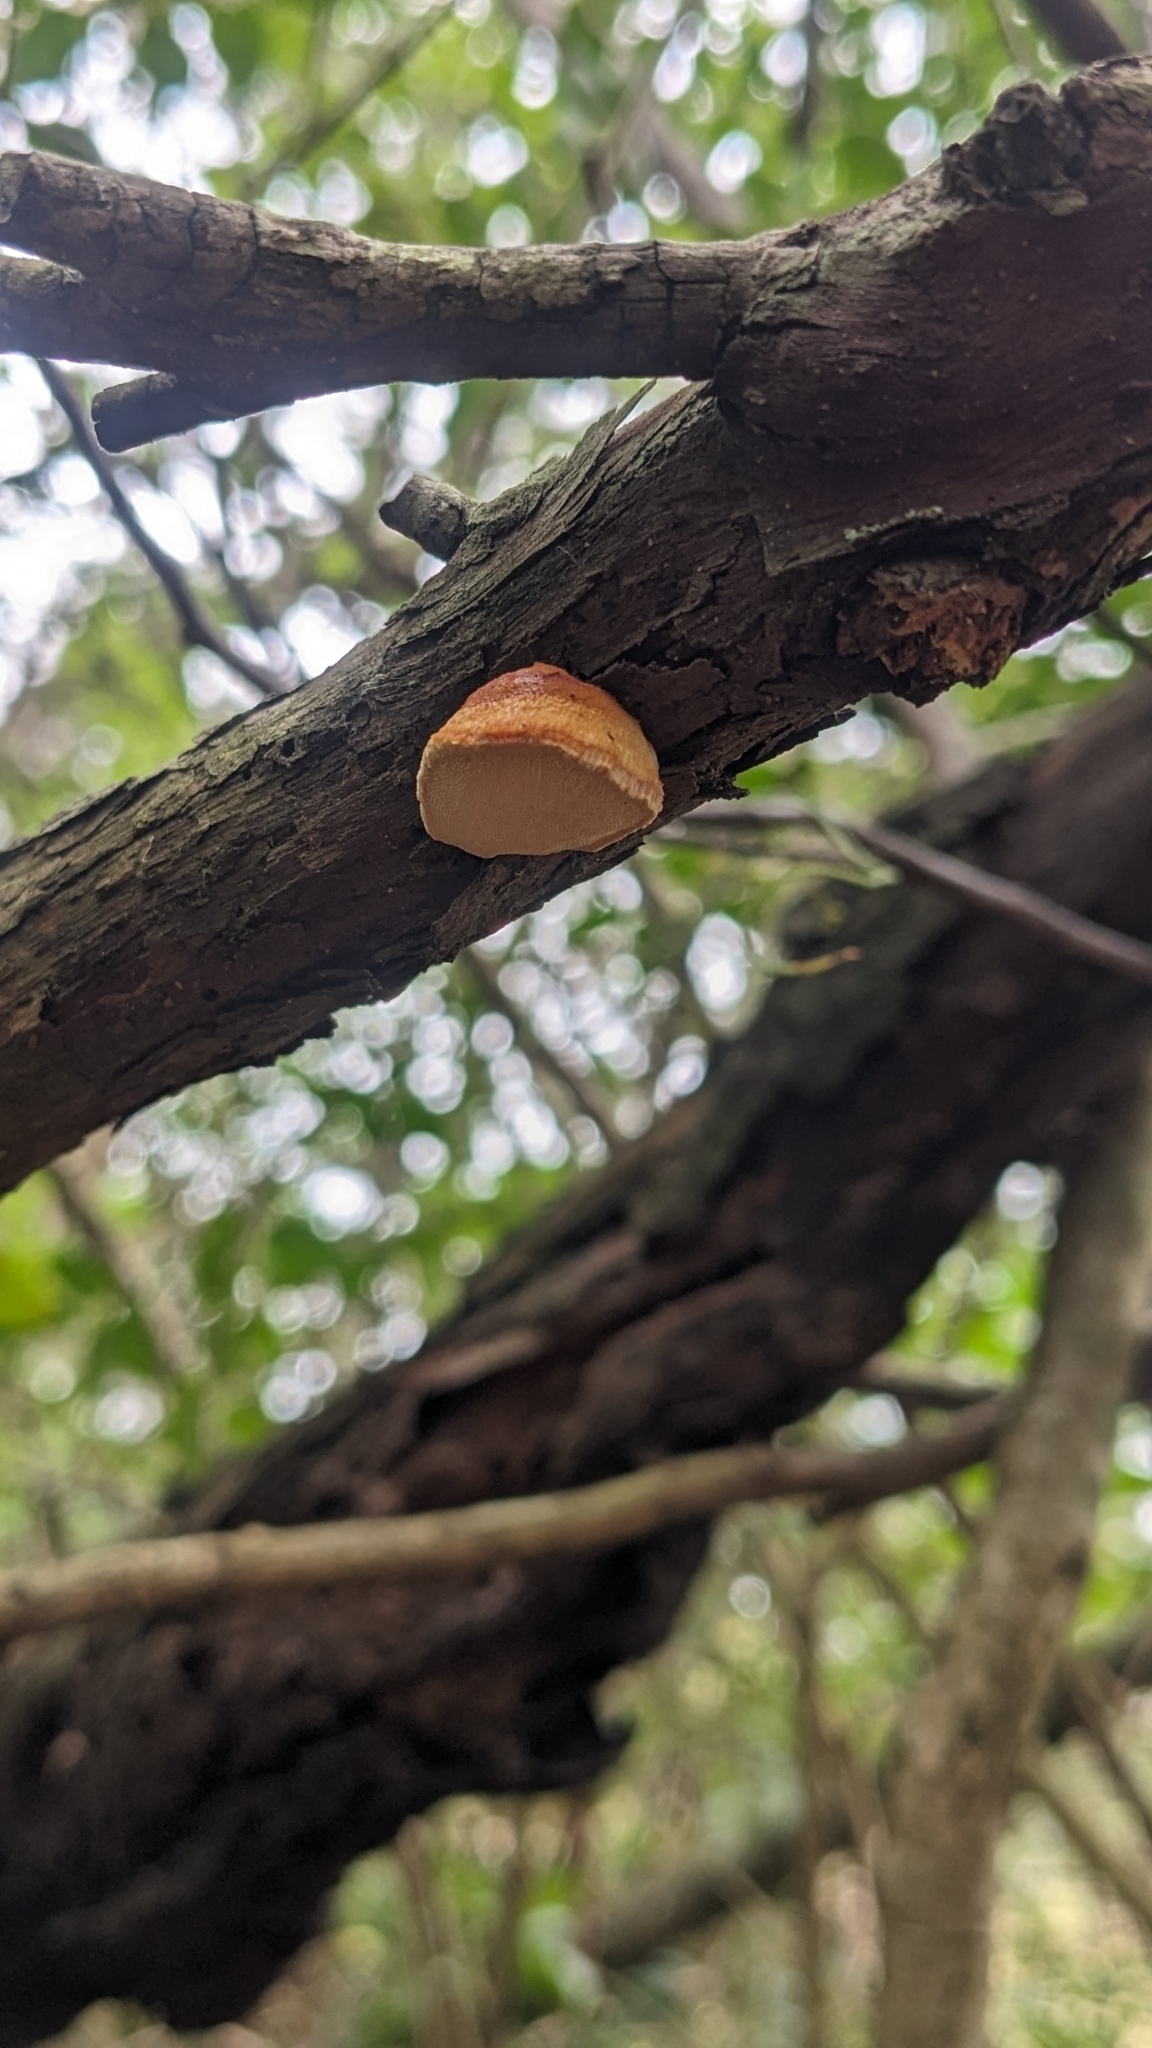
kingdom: Fungi
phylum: Basidiomycota
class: Agaricomycetes
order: Polyporales
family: Polyporaceae
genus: Truncospora
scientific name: Truncospora ochroleuca
